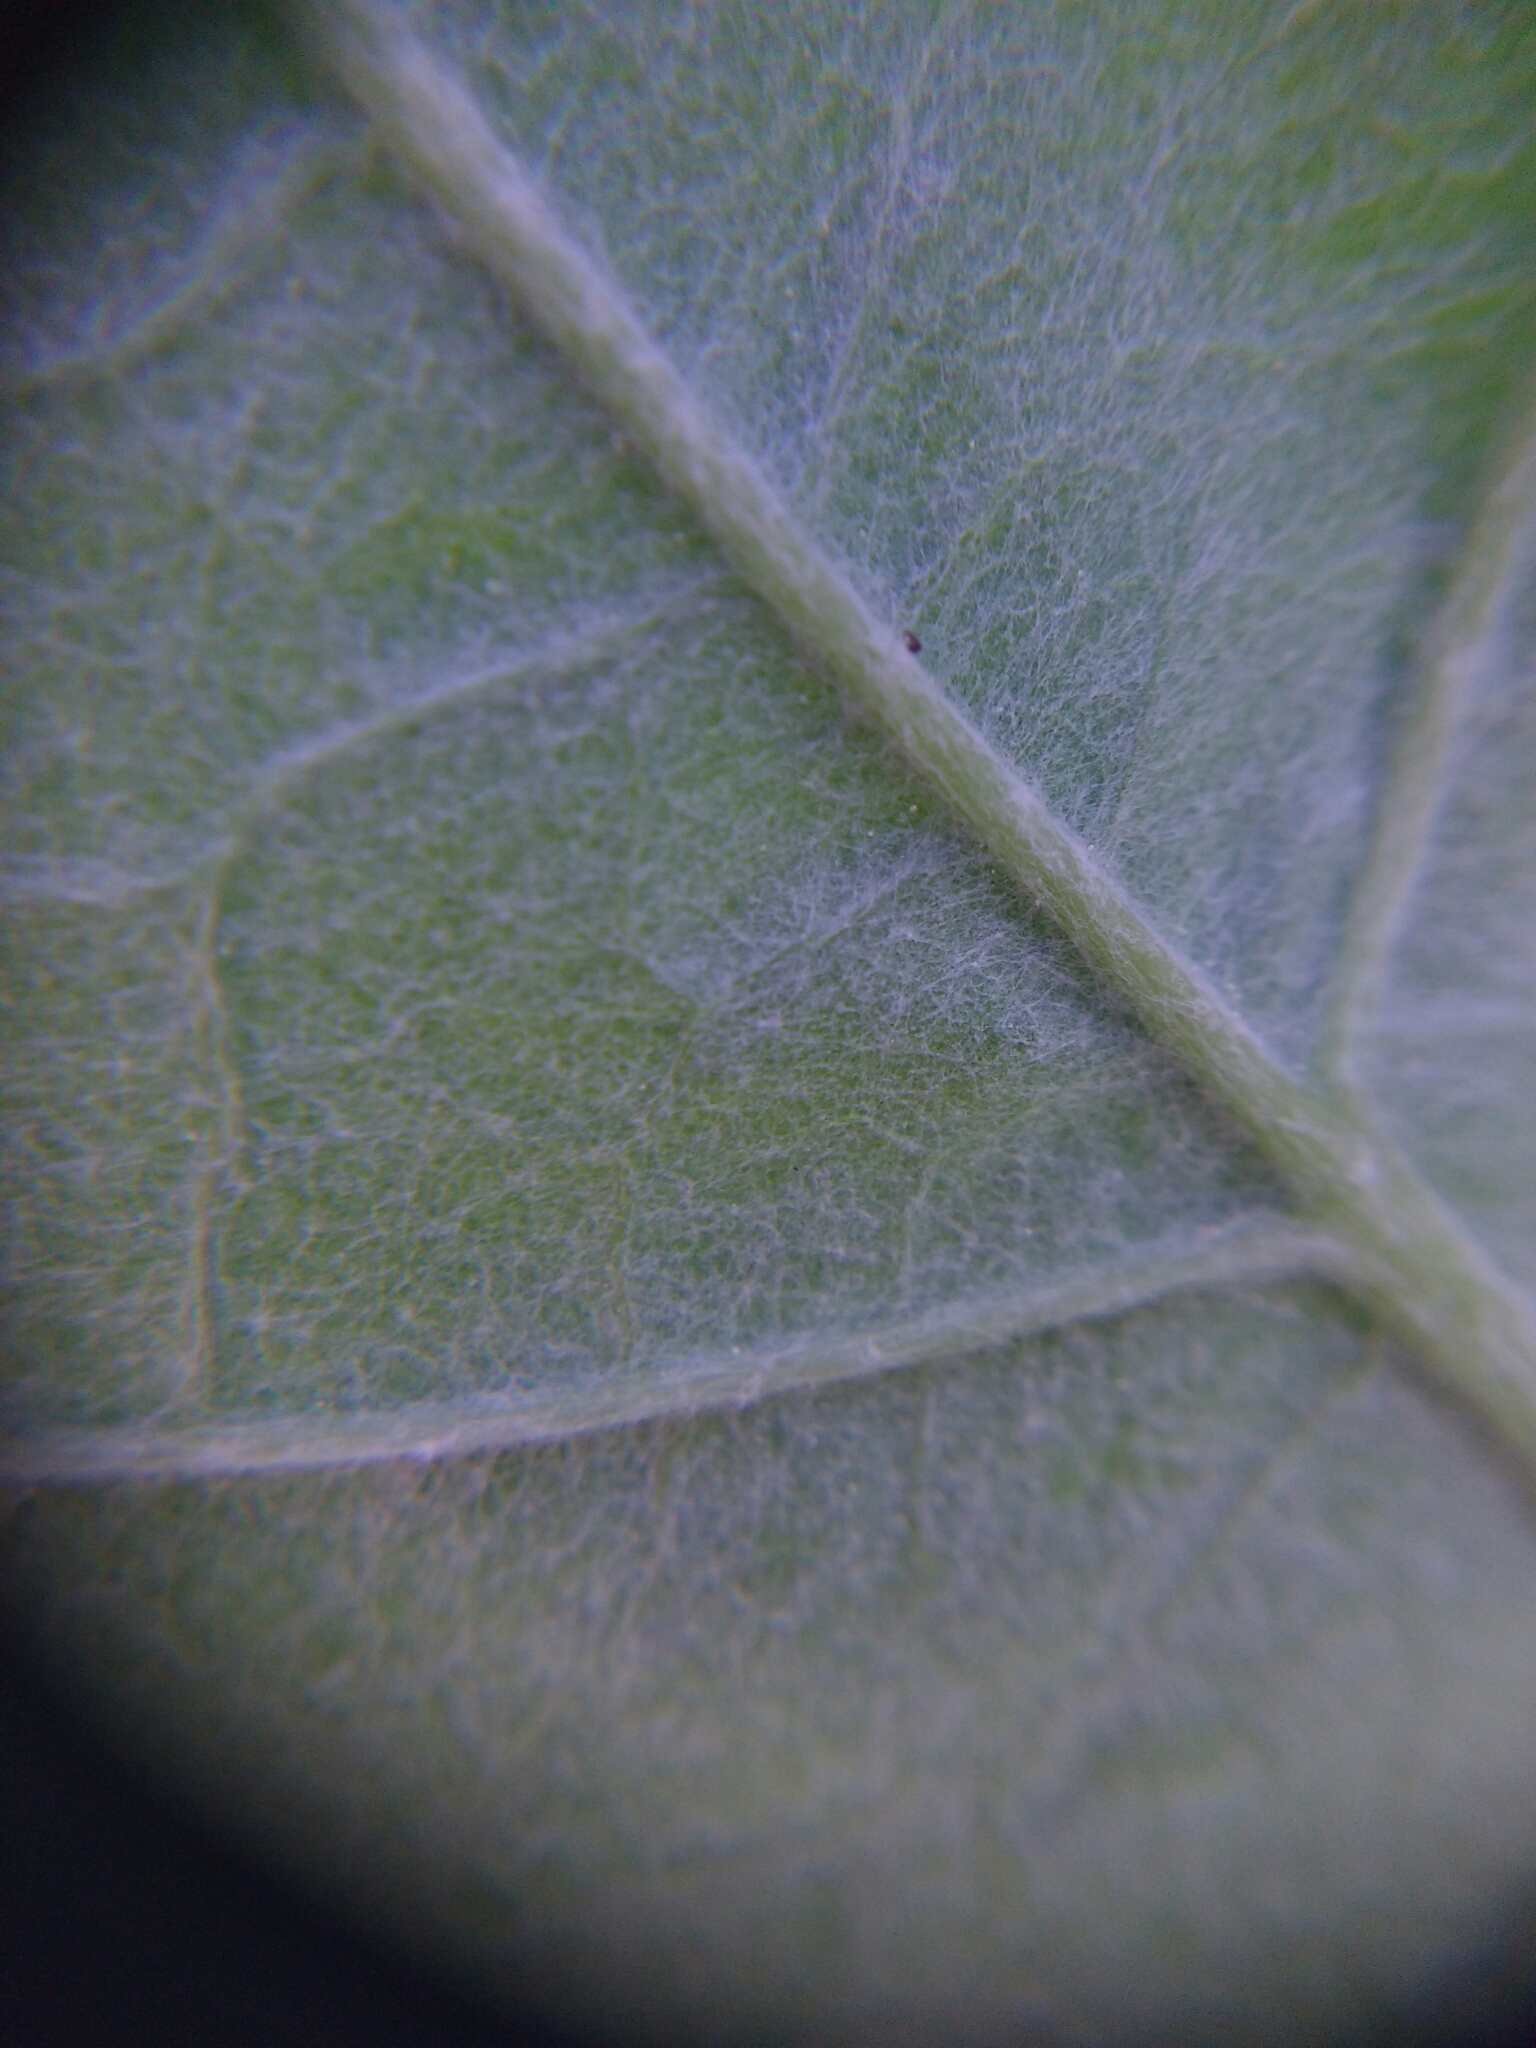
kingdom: Plantae
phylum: Tracheophyta
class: Magnoliopsida
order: Malpighiales
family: Salicaceae
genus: Populus
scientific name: Populus alba
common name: White poplar
